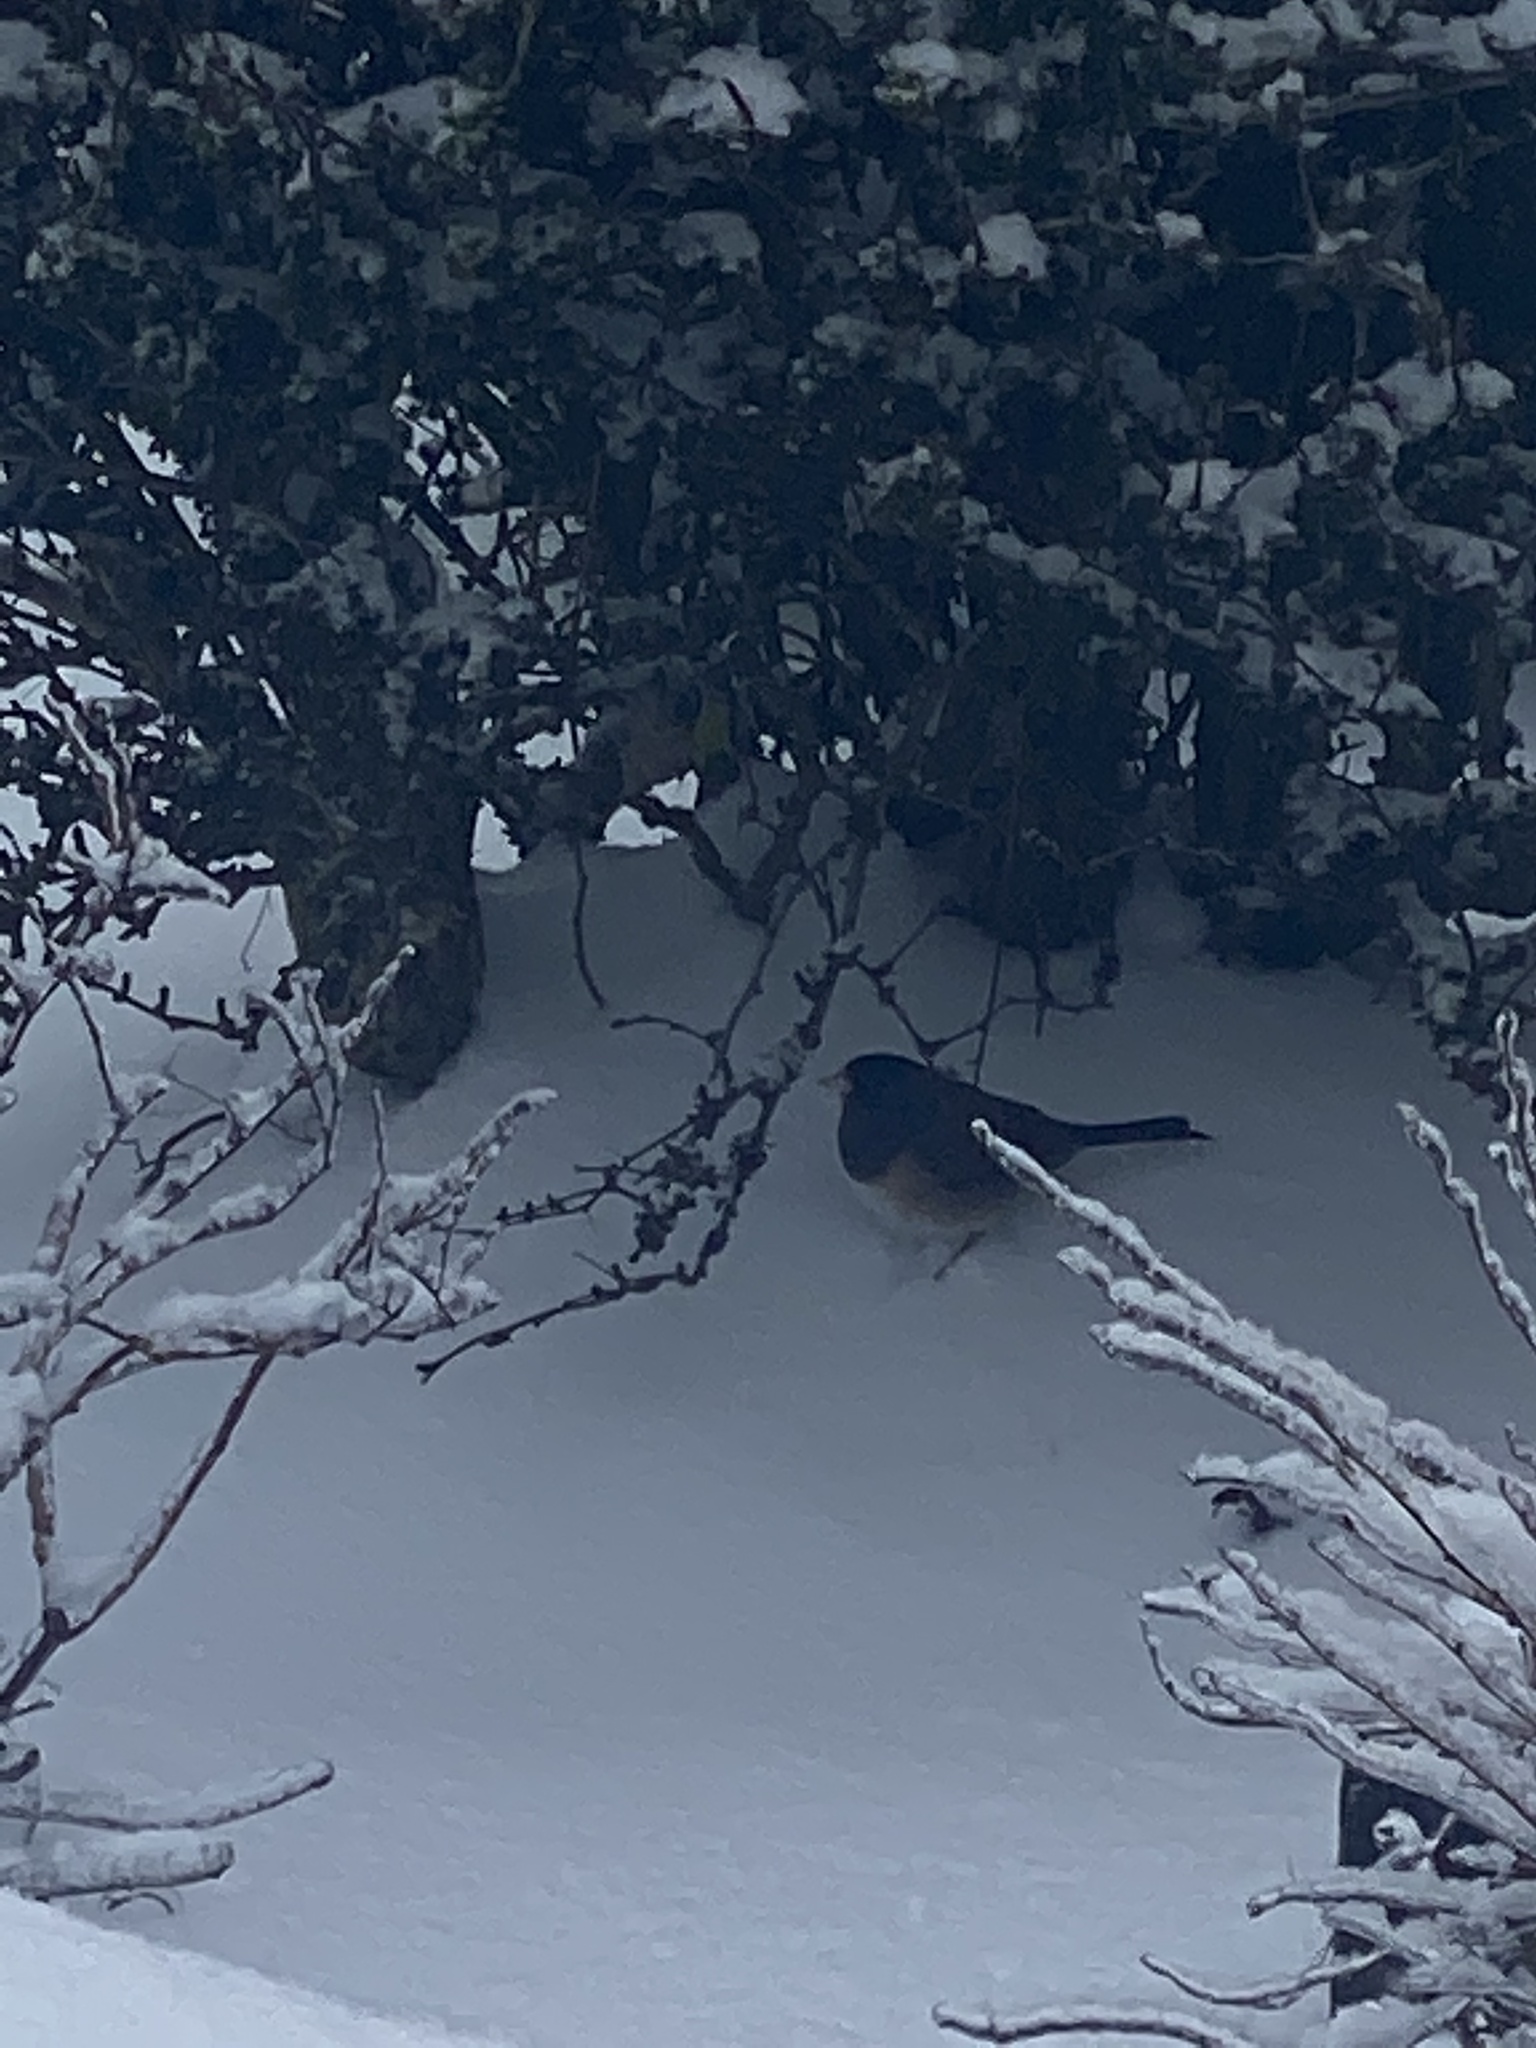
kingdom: Animalia
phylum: Chordata
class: Aves
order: Passeriformes
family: Passerellidae
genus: Junco
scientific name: Junco hyemalis
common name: Dark-eyed junco
